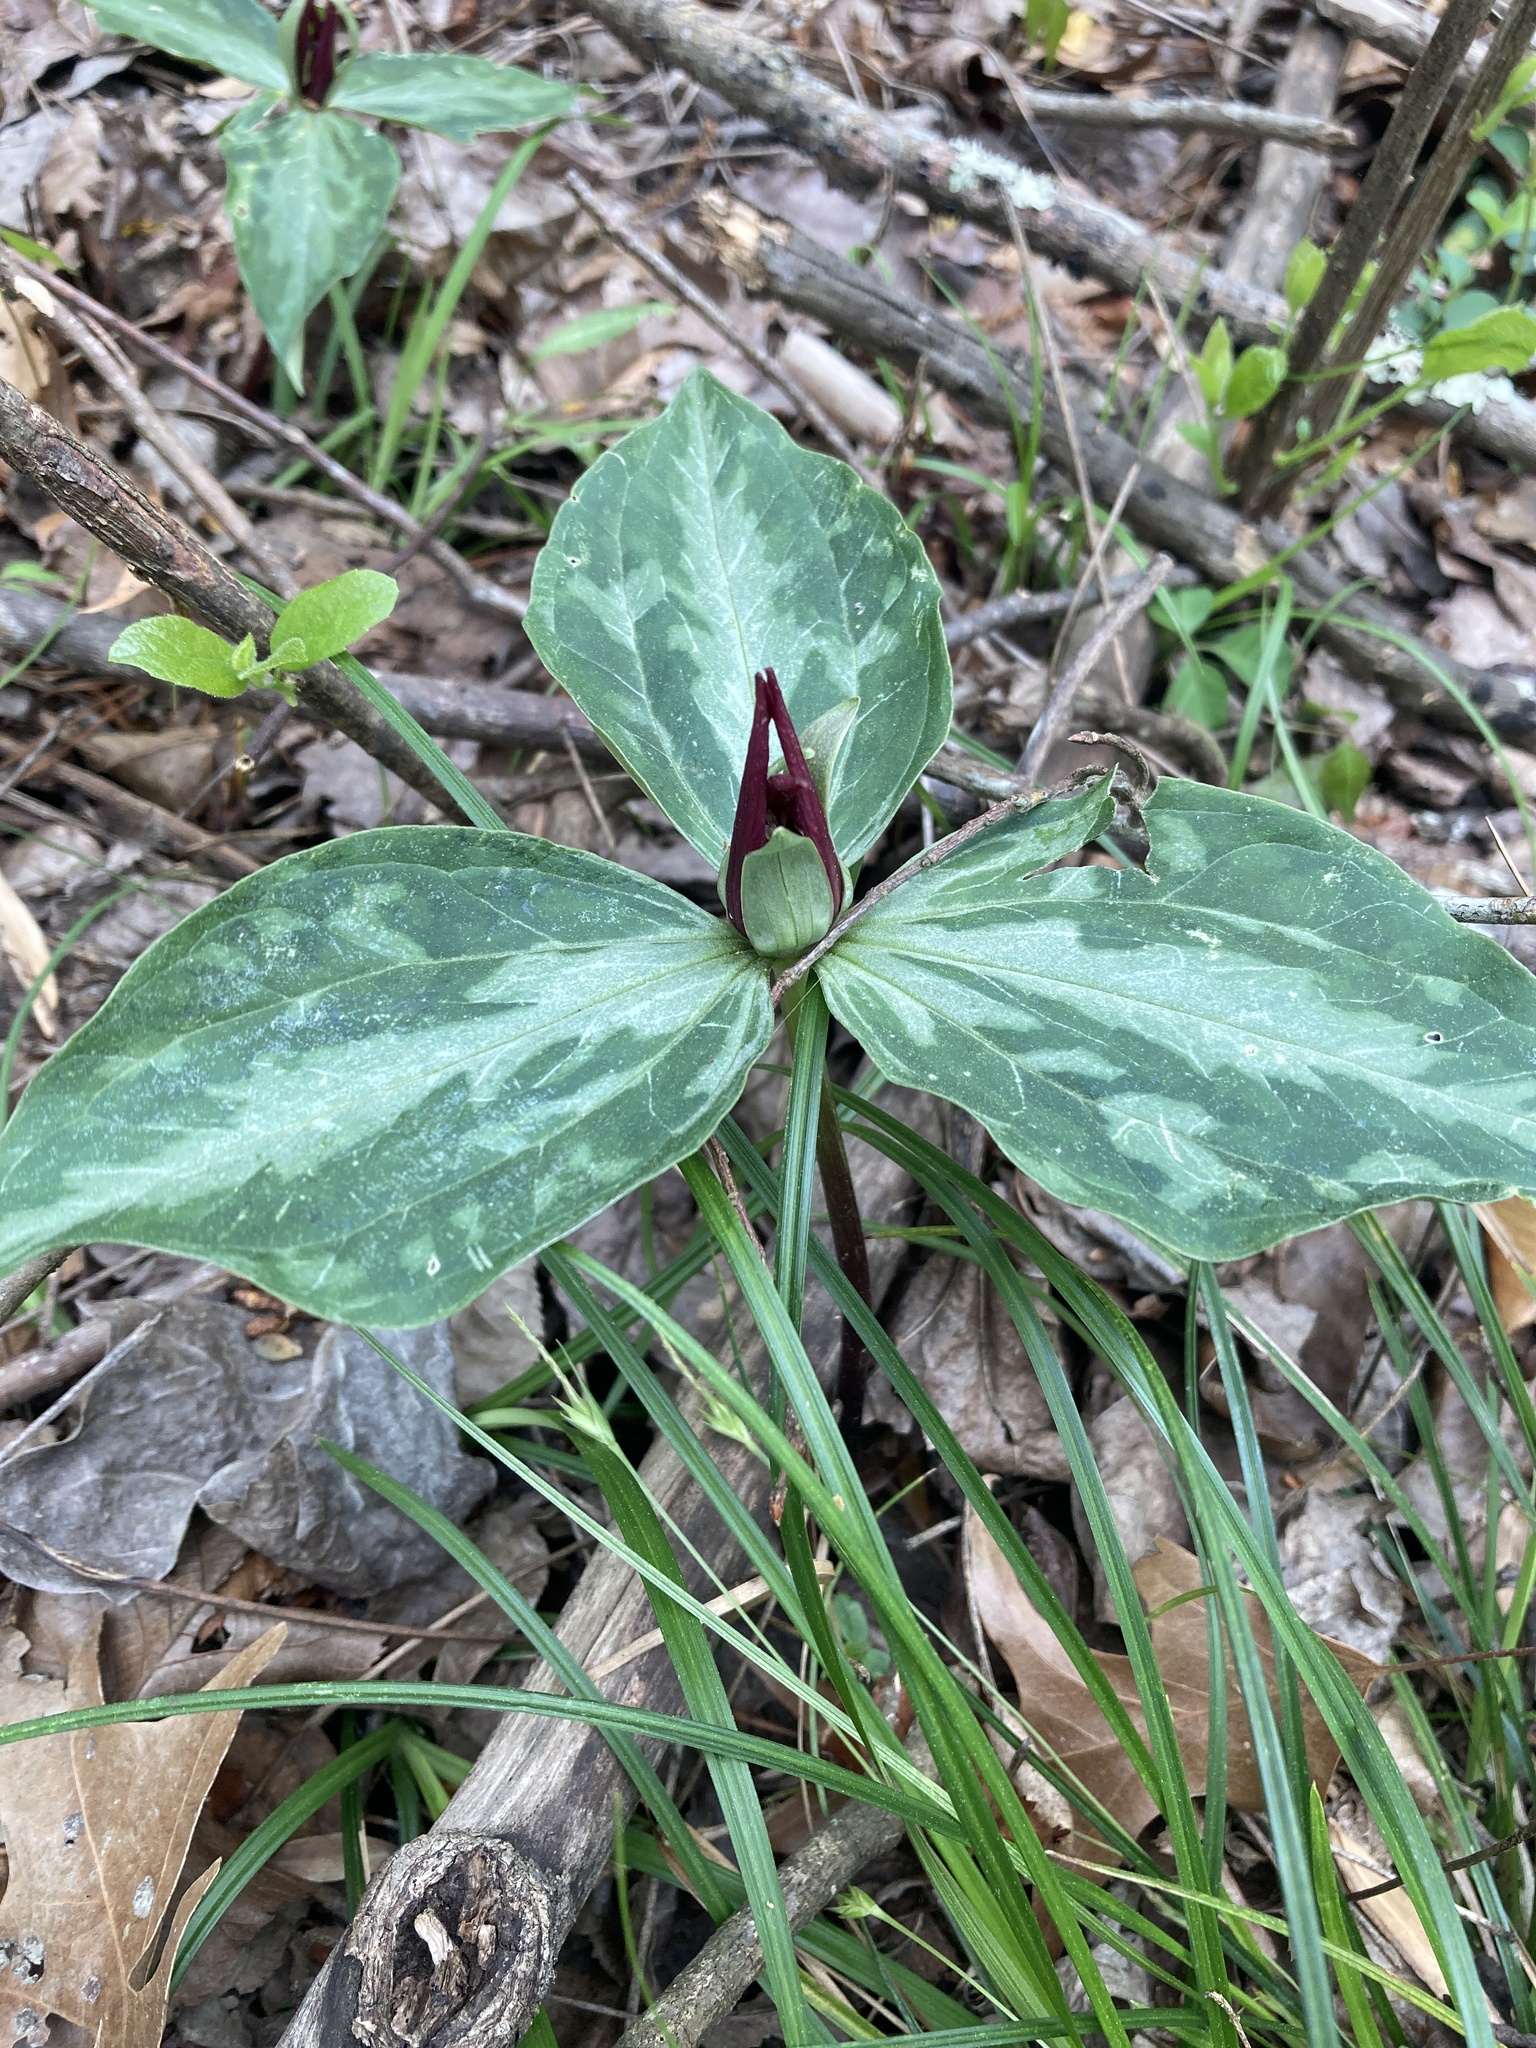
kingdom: Plantae
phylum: Tracheophyta
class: Liliopsida
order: Liliales
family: Melanthiaceae
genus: Trillium
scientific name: Trillium foetidissimum
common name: Mississippi river trillium
